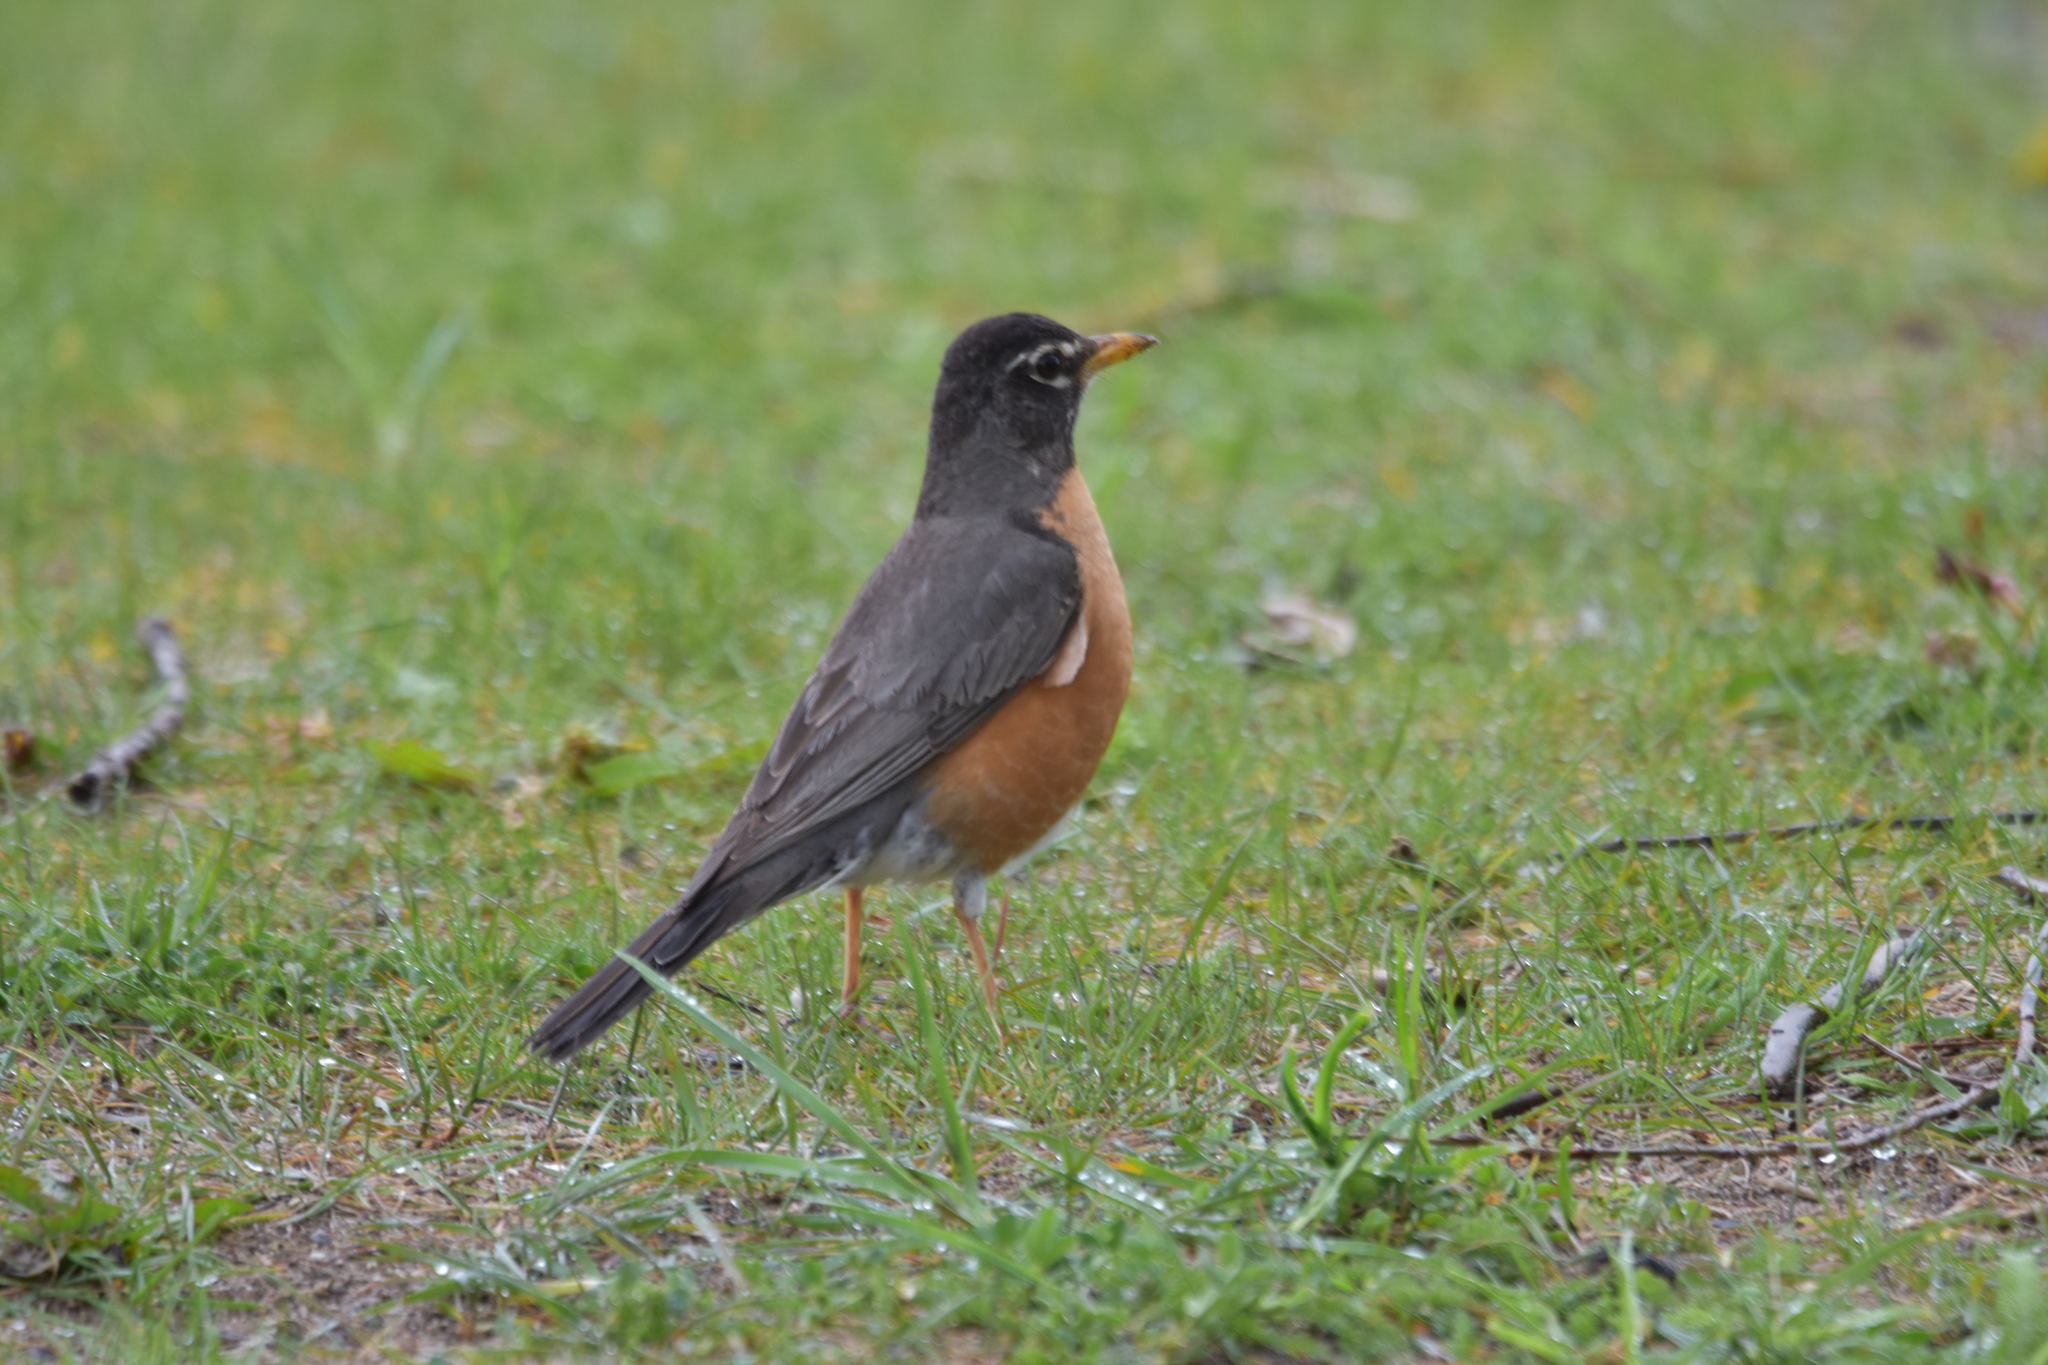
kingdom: Animalia
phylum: Chordata
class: Aves
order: Passeriformes
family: Turdidae
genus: Turdus
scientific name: Turdus migratorius
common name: American robin
